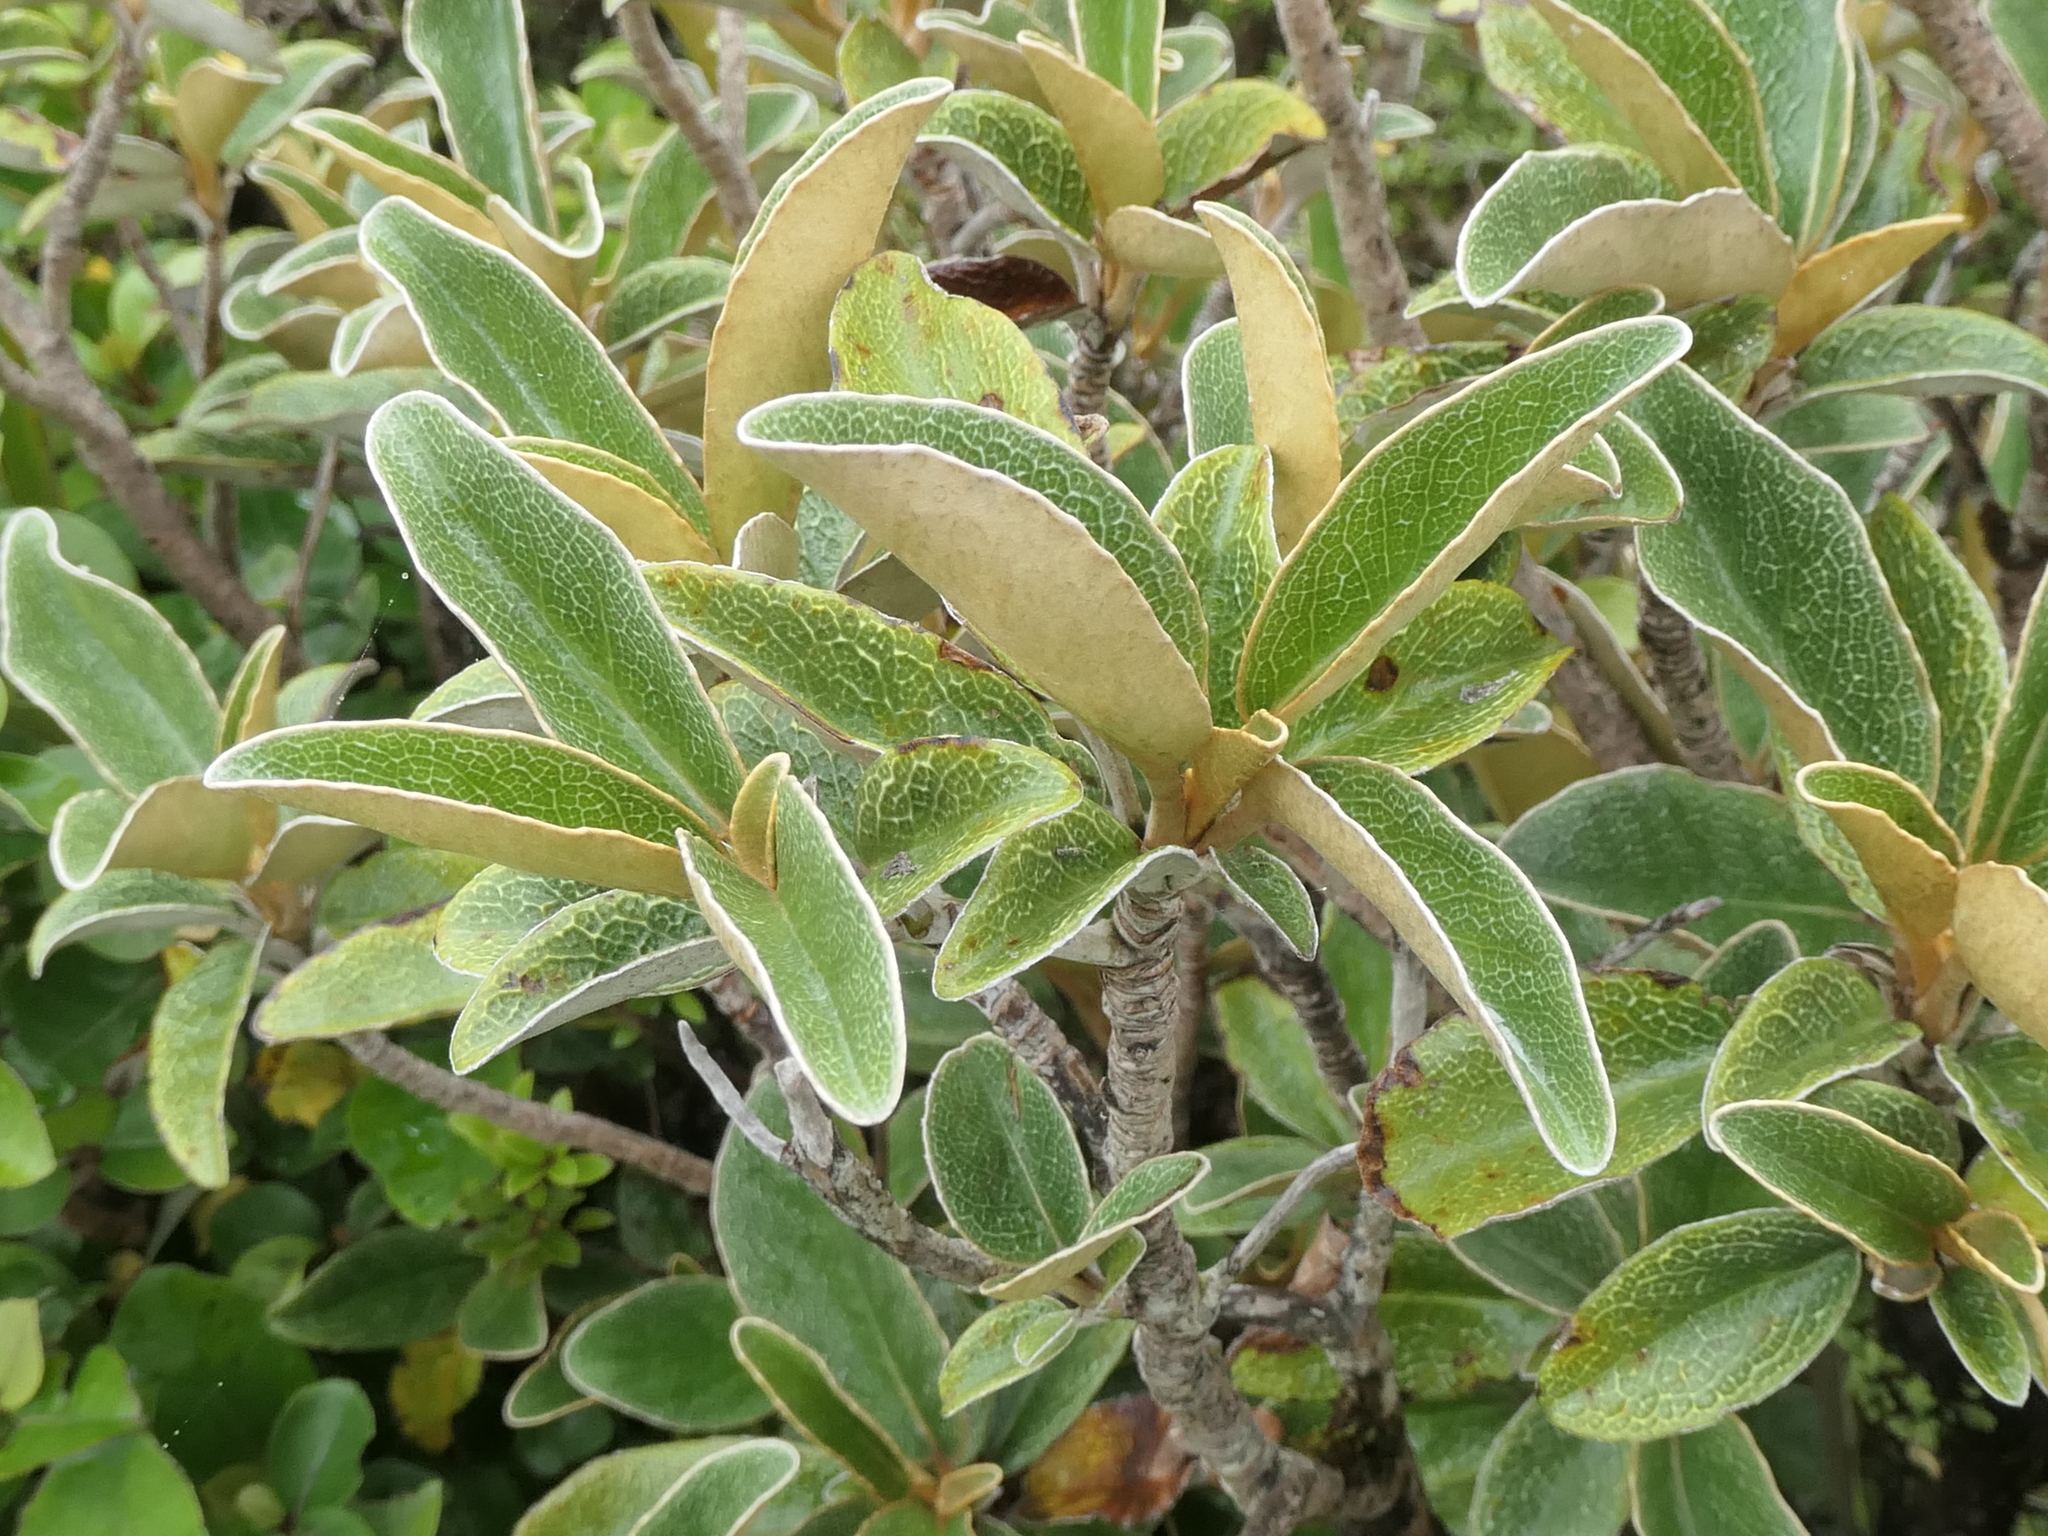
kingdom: Plantae
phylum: Tracheophyta
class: Magnoliopsida
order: Asterales
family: Asteraceae
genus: Brachyglottis
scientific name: Brachyglottis elaeagnifolia
